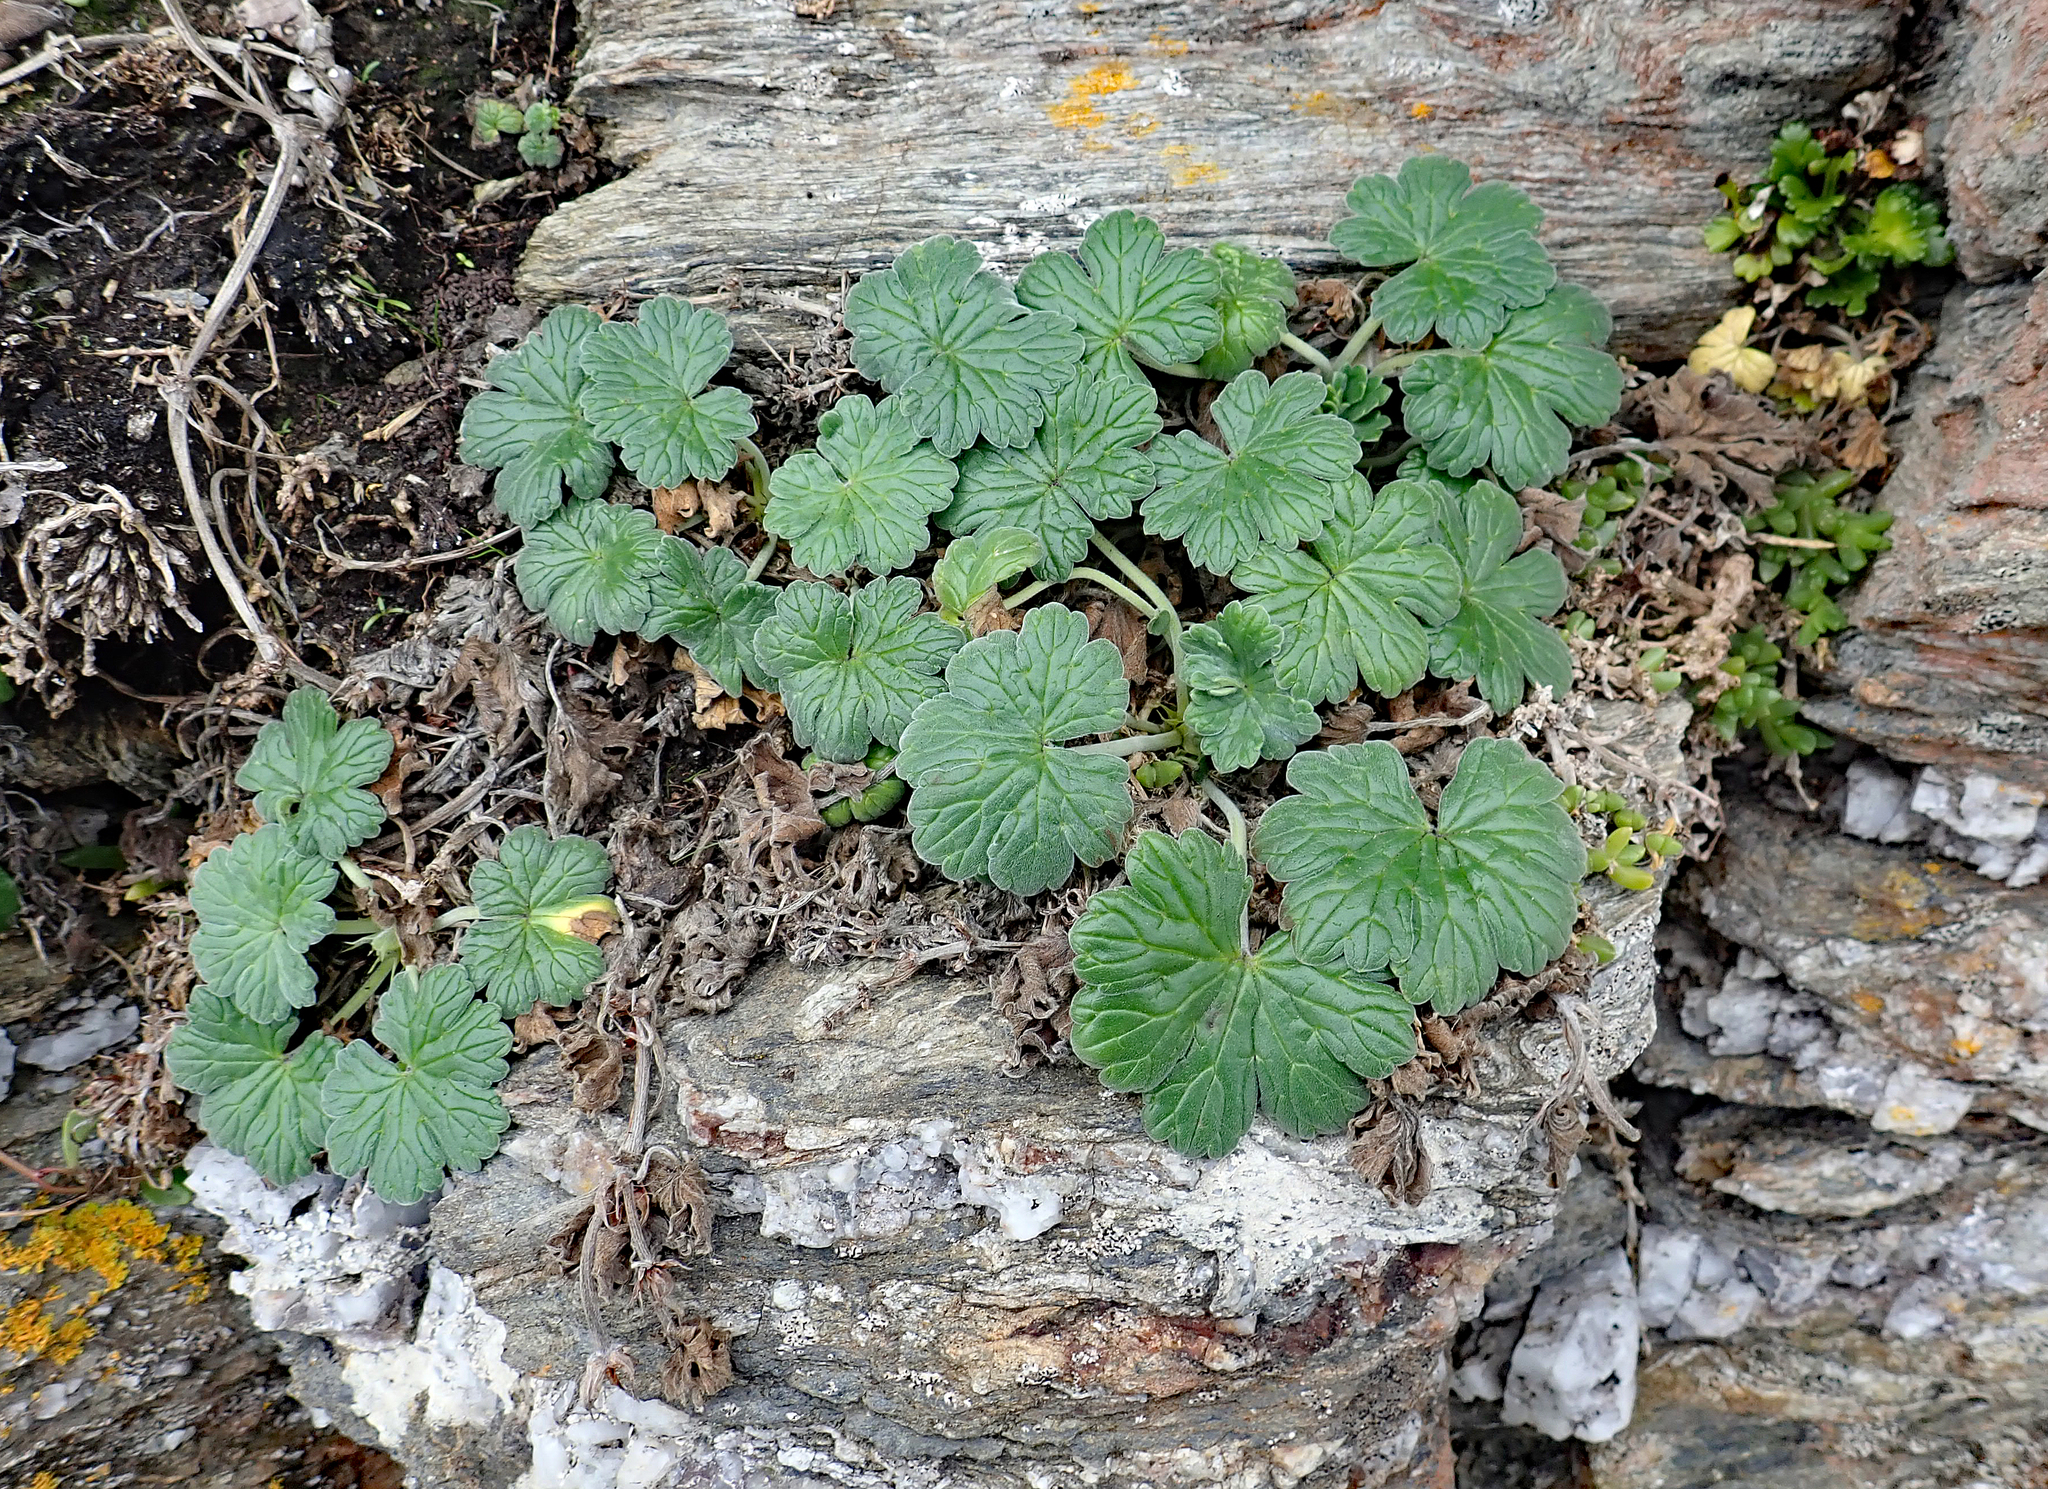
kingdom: Plantae
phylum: Tracheophyta
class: Magnoliopsida
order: Geraniales
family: Geraniaceae
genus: Geranium
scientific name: Geranium traversii
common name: Cranesbill
